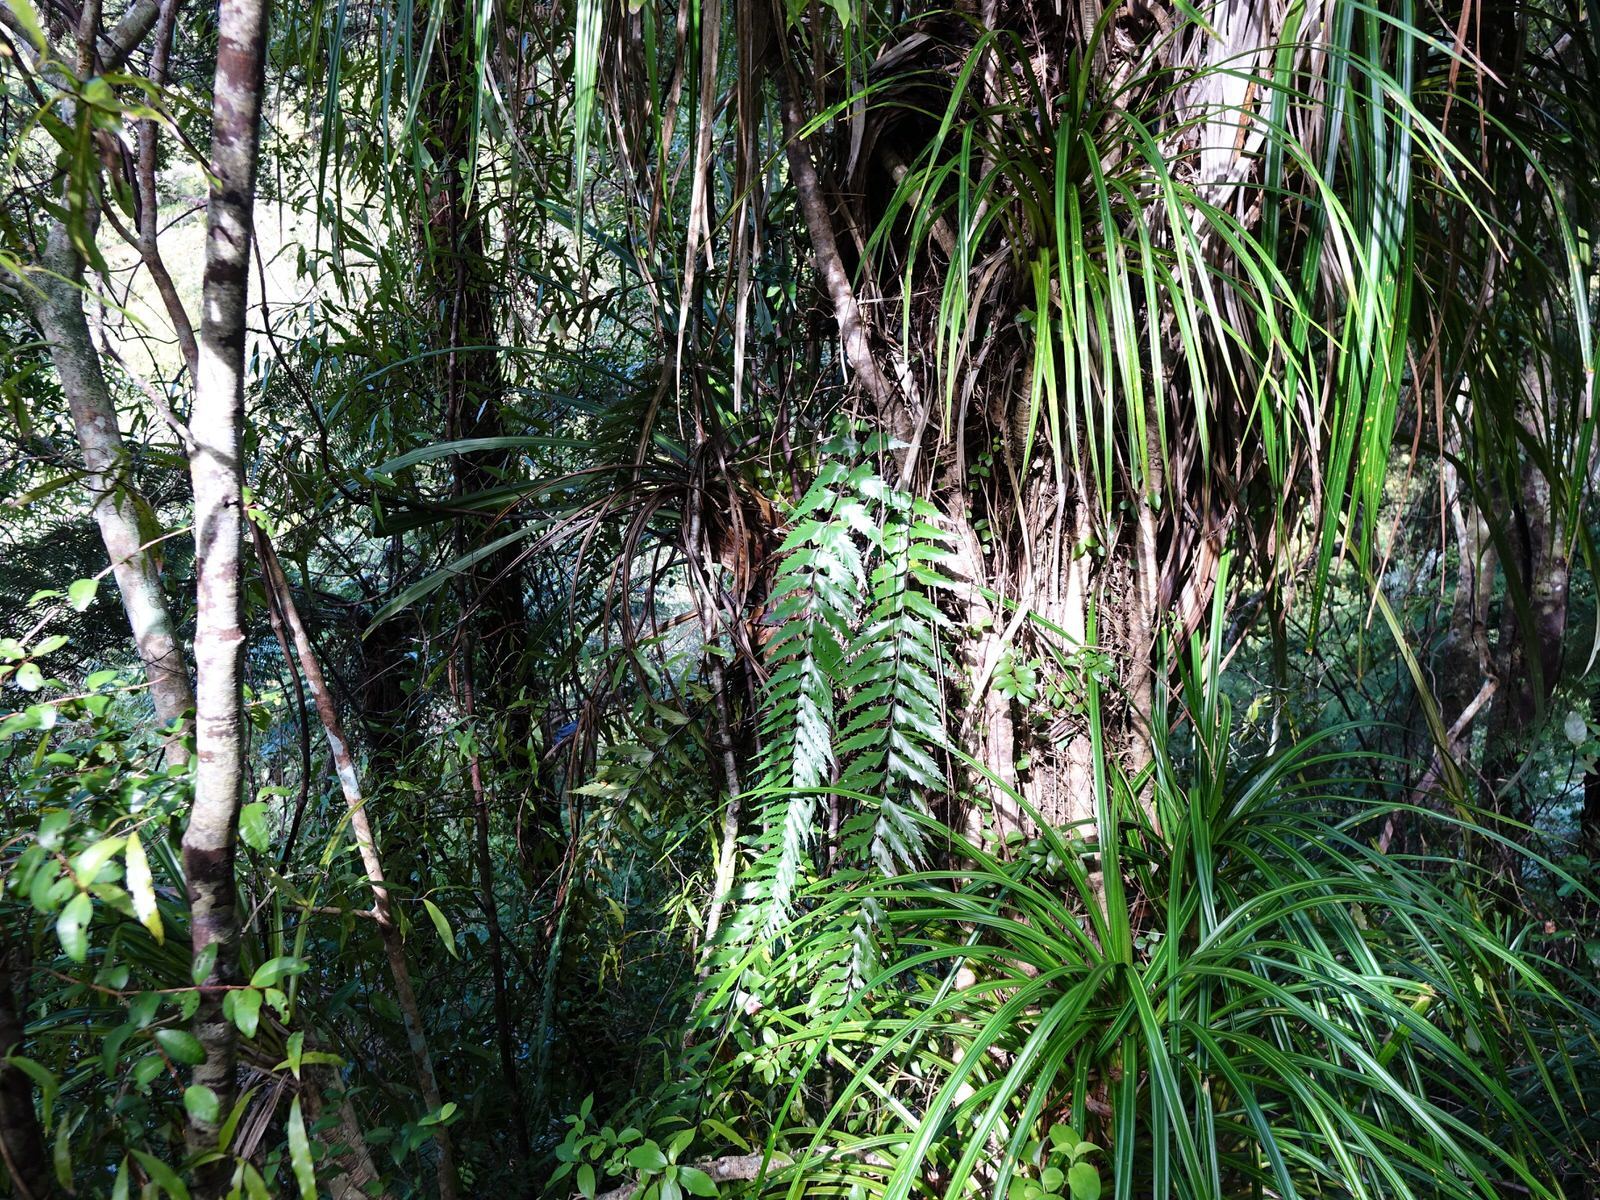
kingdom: Plantae
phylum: Tracheophyta
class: Polypodiopsida
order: Polypodiales
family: Aspleniaceae
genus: Asplenium
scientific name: Asplenium polyodon
